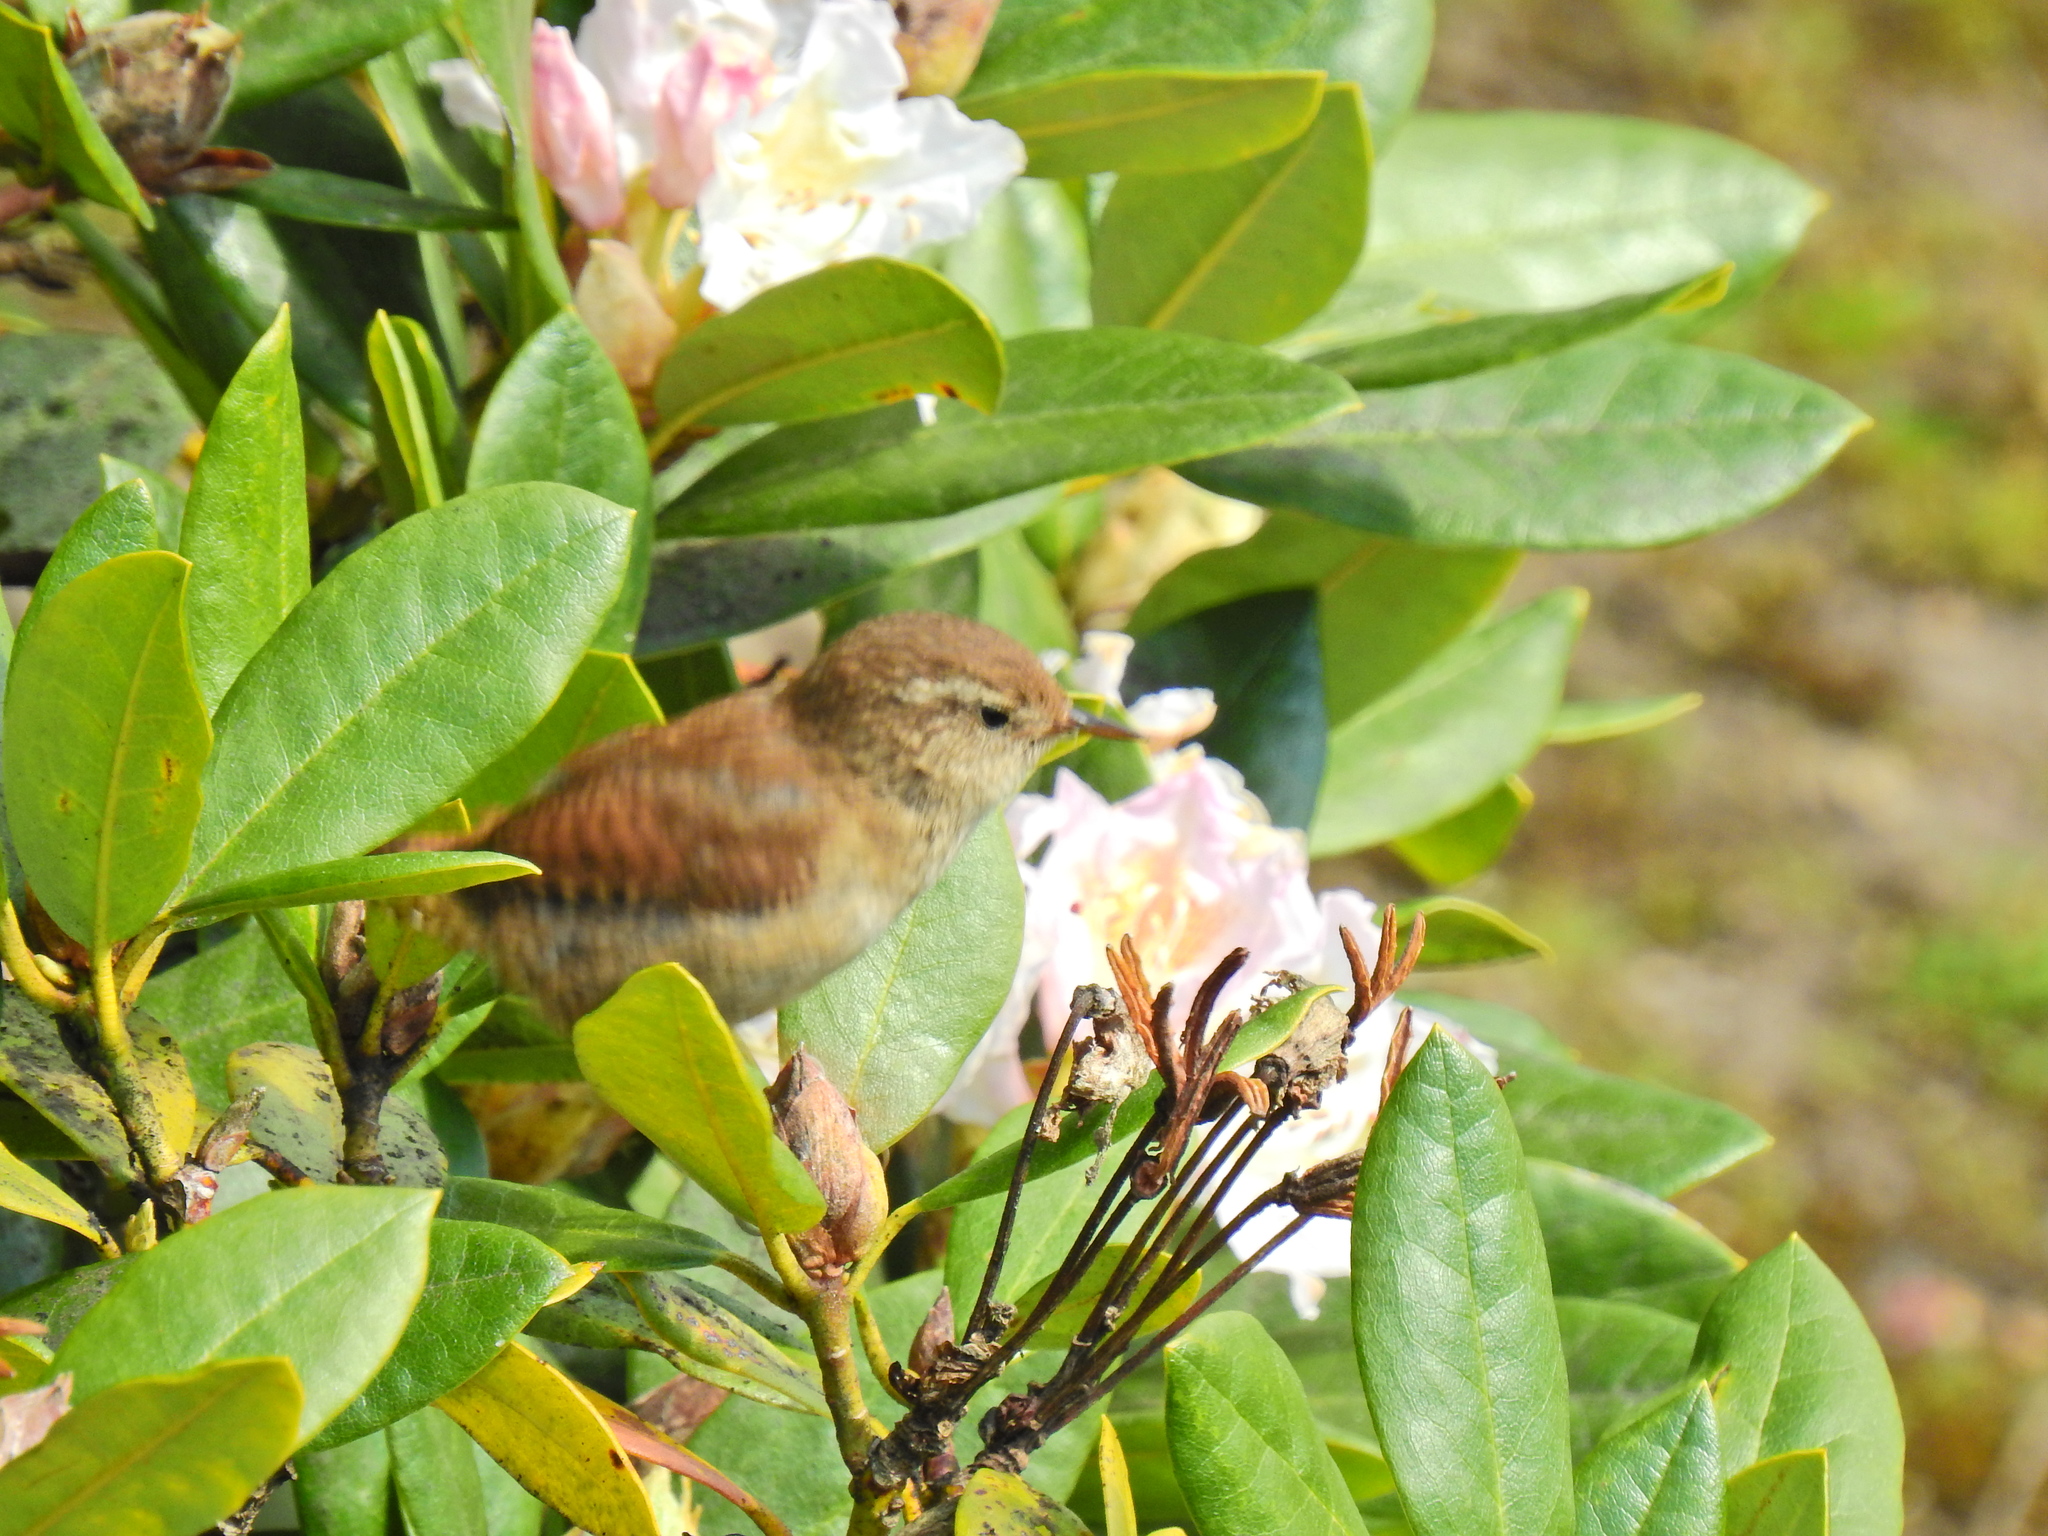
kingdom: Animalia
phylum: Chordata
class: Aves
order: Passeriformes
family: Troglodytidae
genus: Troglodytes
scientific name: Troglodytes troglodytes
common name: Eurasian wren
